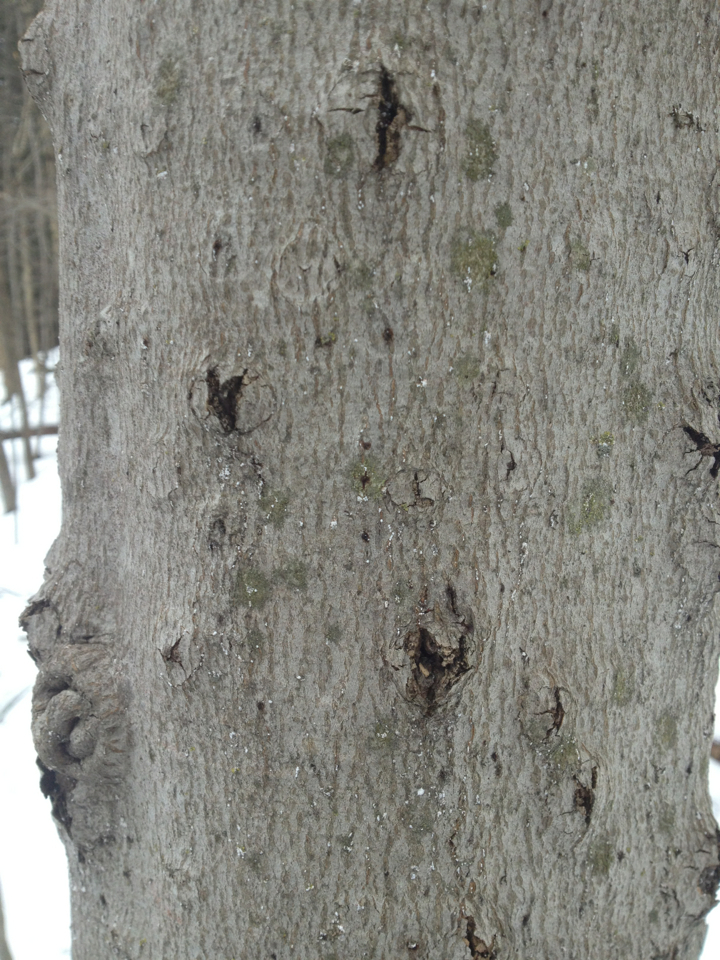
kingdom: Plantae
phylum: Tracheophyta
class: Magnoliopsida
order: Fagales
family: Fagaceae
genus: Fagus
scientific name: Fagus grandifolia
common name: American beech
